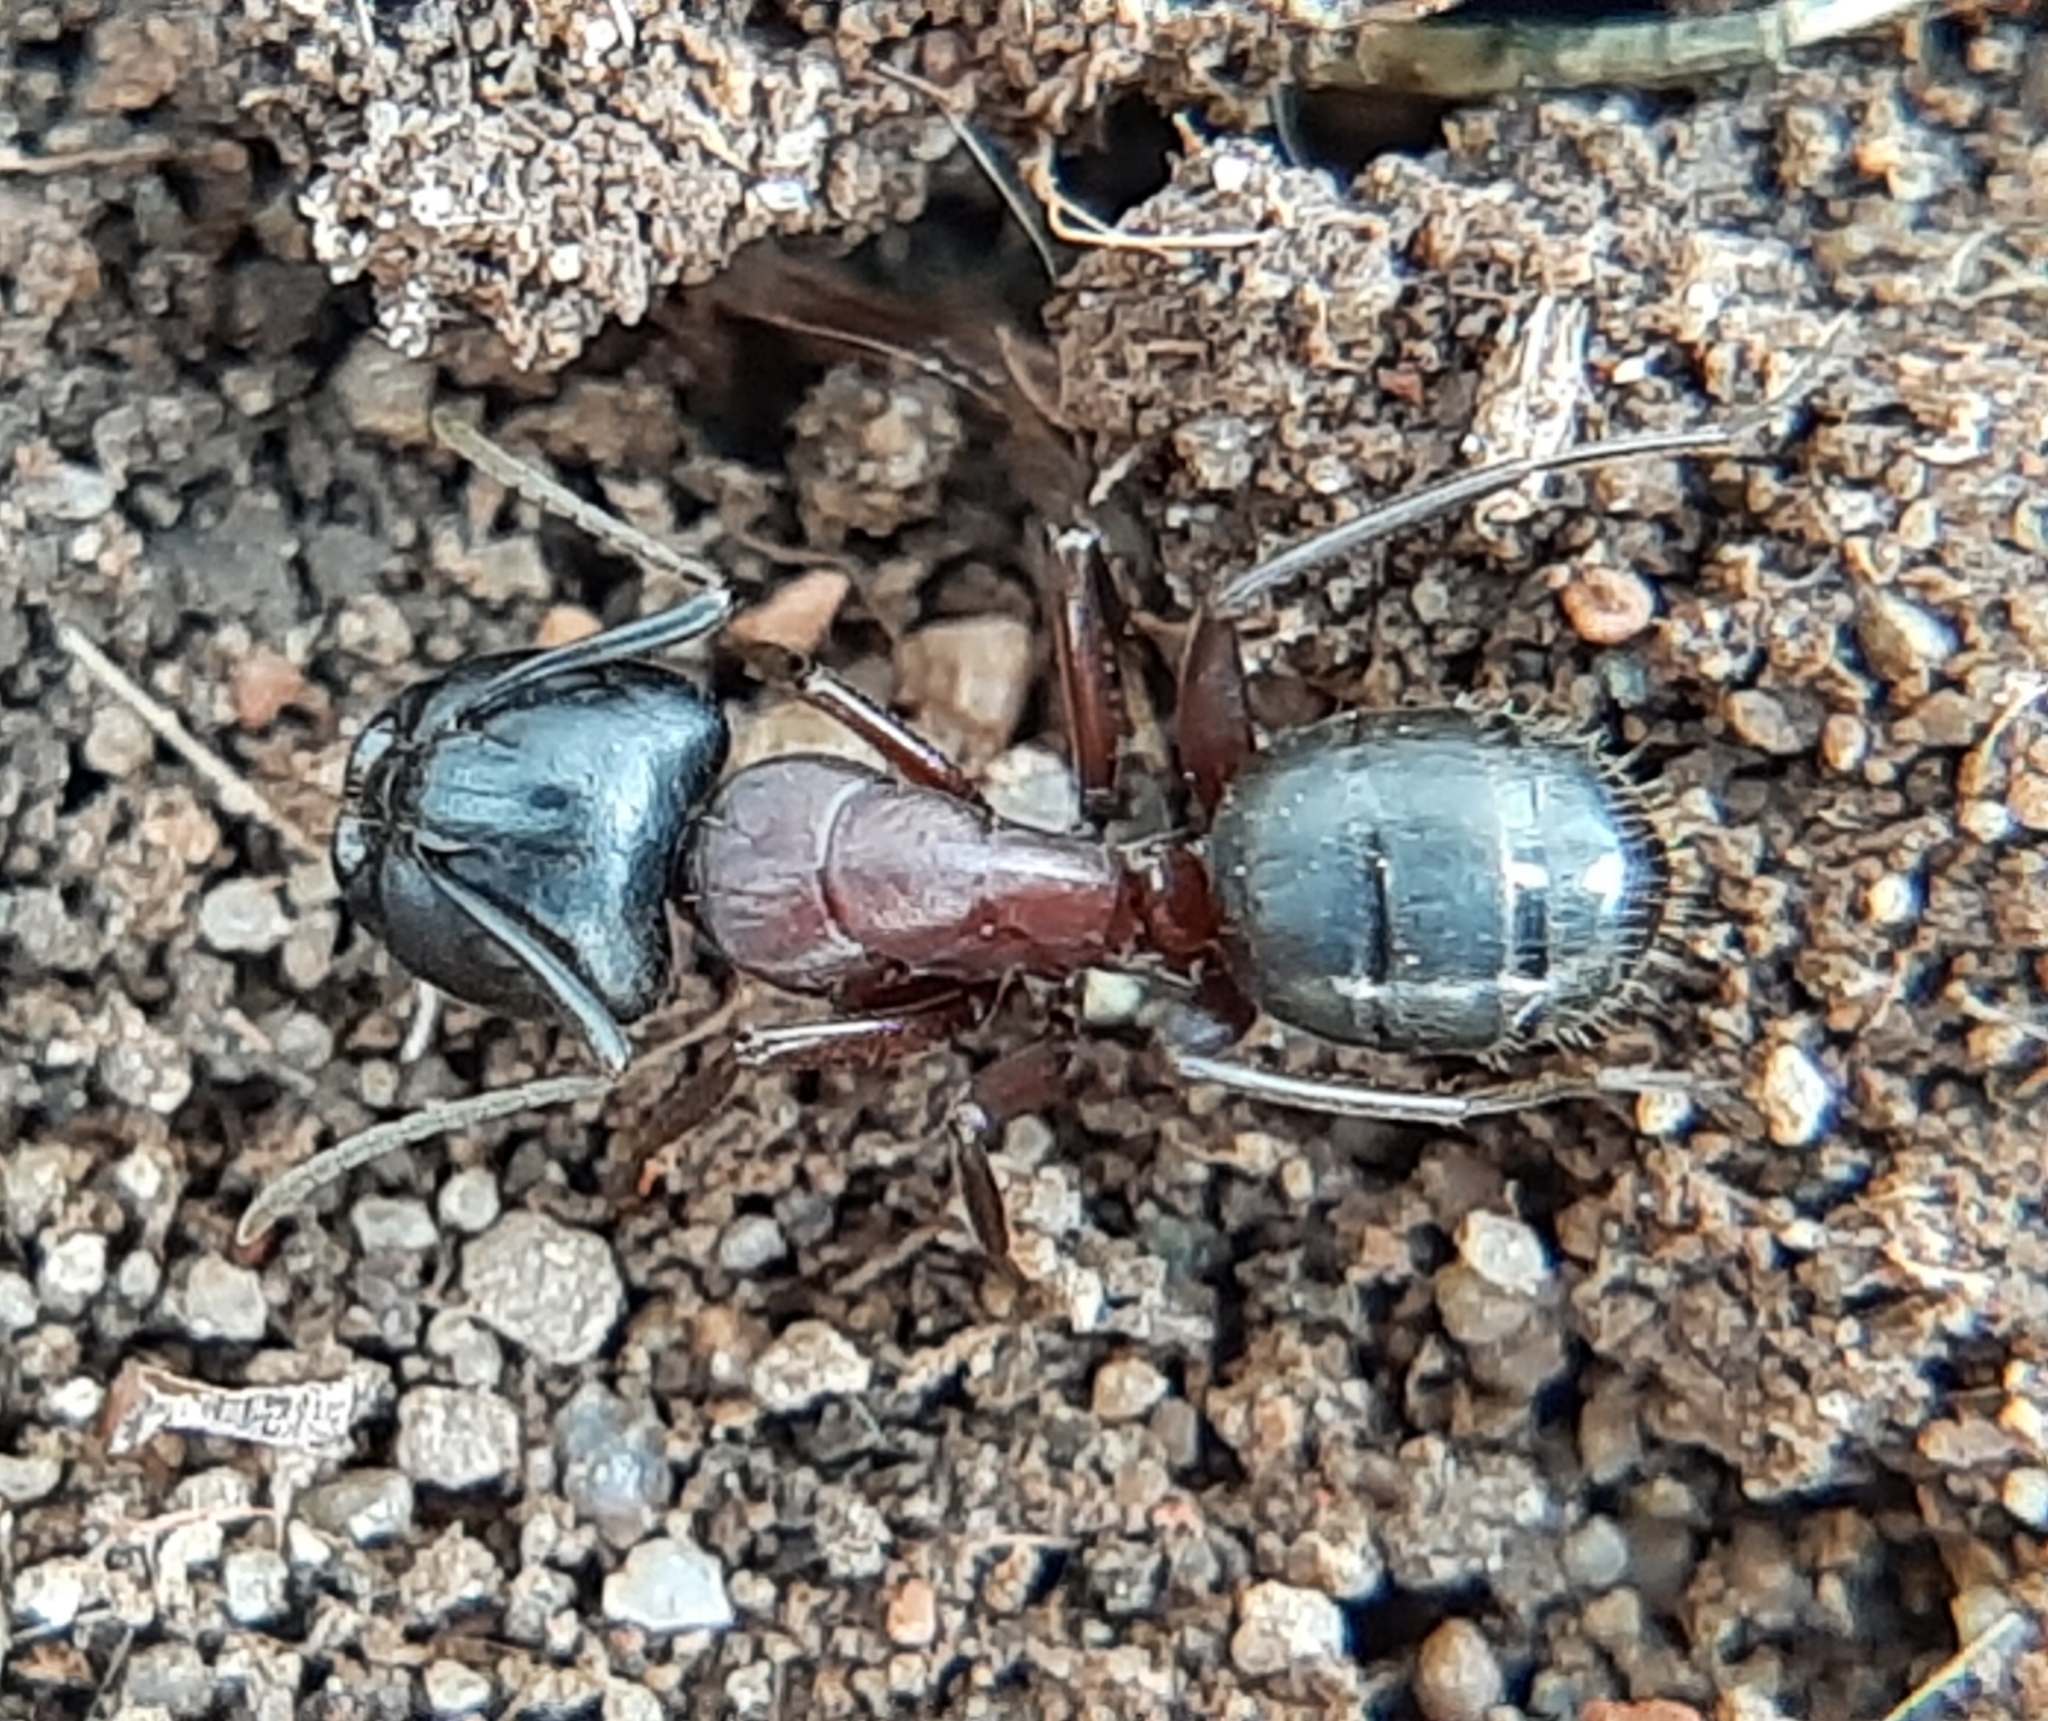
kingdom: Animalia
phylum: Arthropoda
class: Insecta
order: Hymenoptera
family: Formicidae
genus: Camponotus
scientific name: Camponotus novaeboracensis
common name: New york carpenter ant
